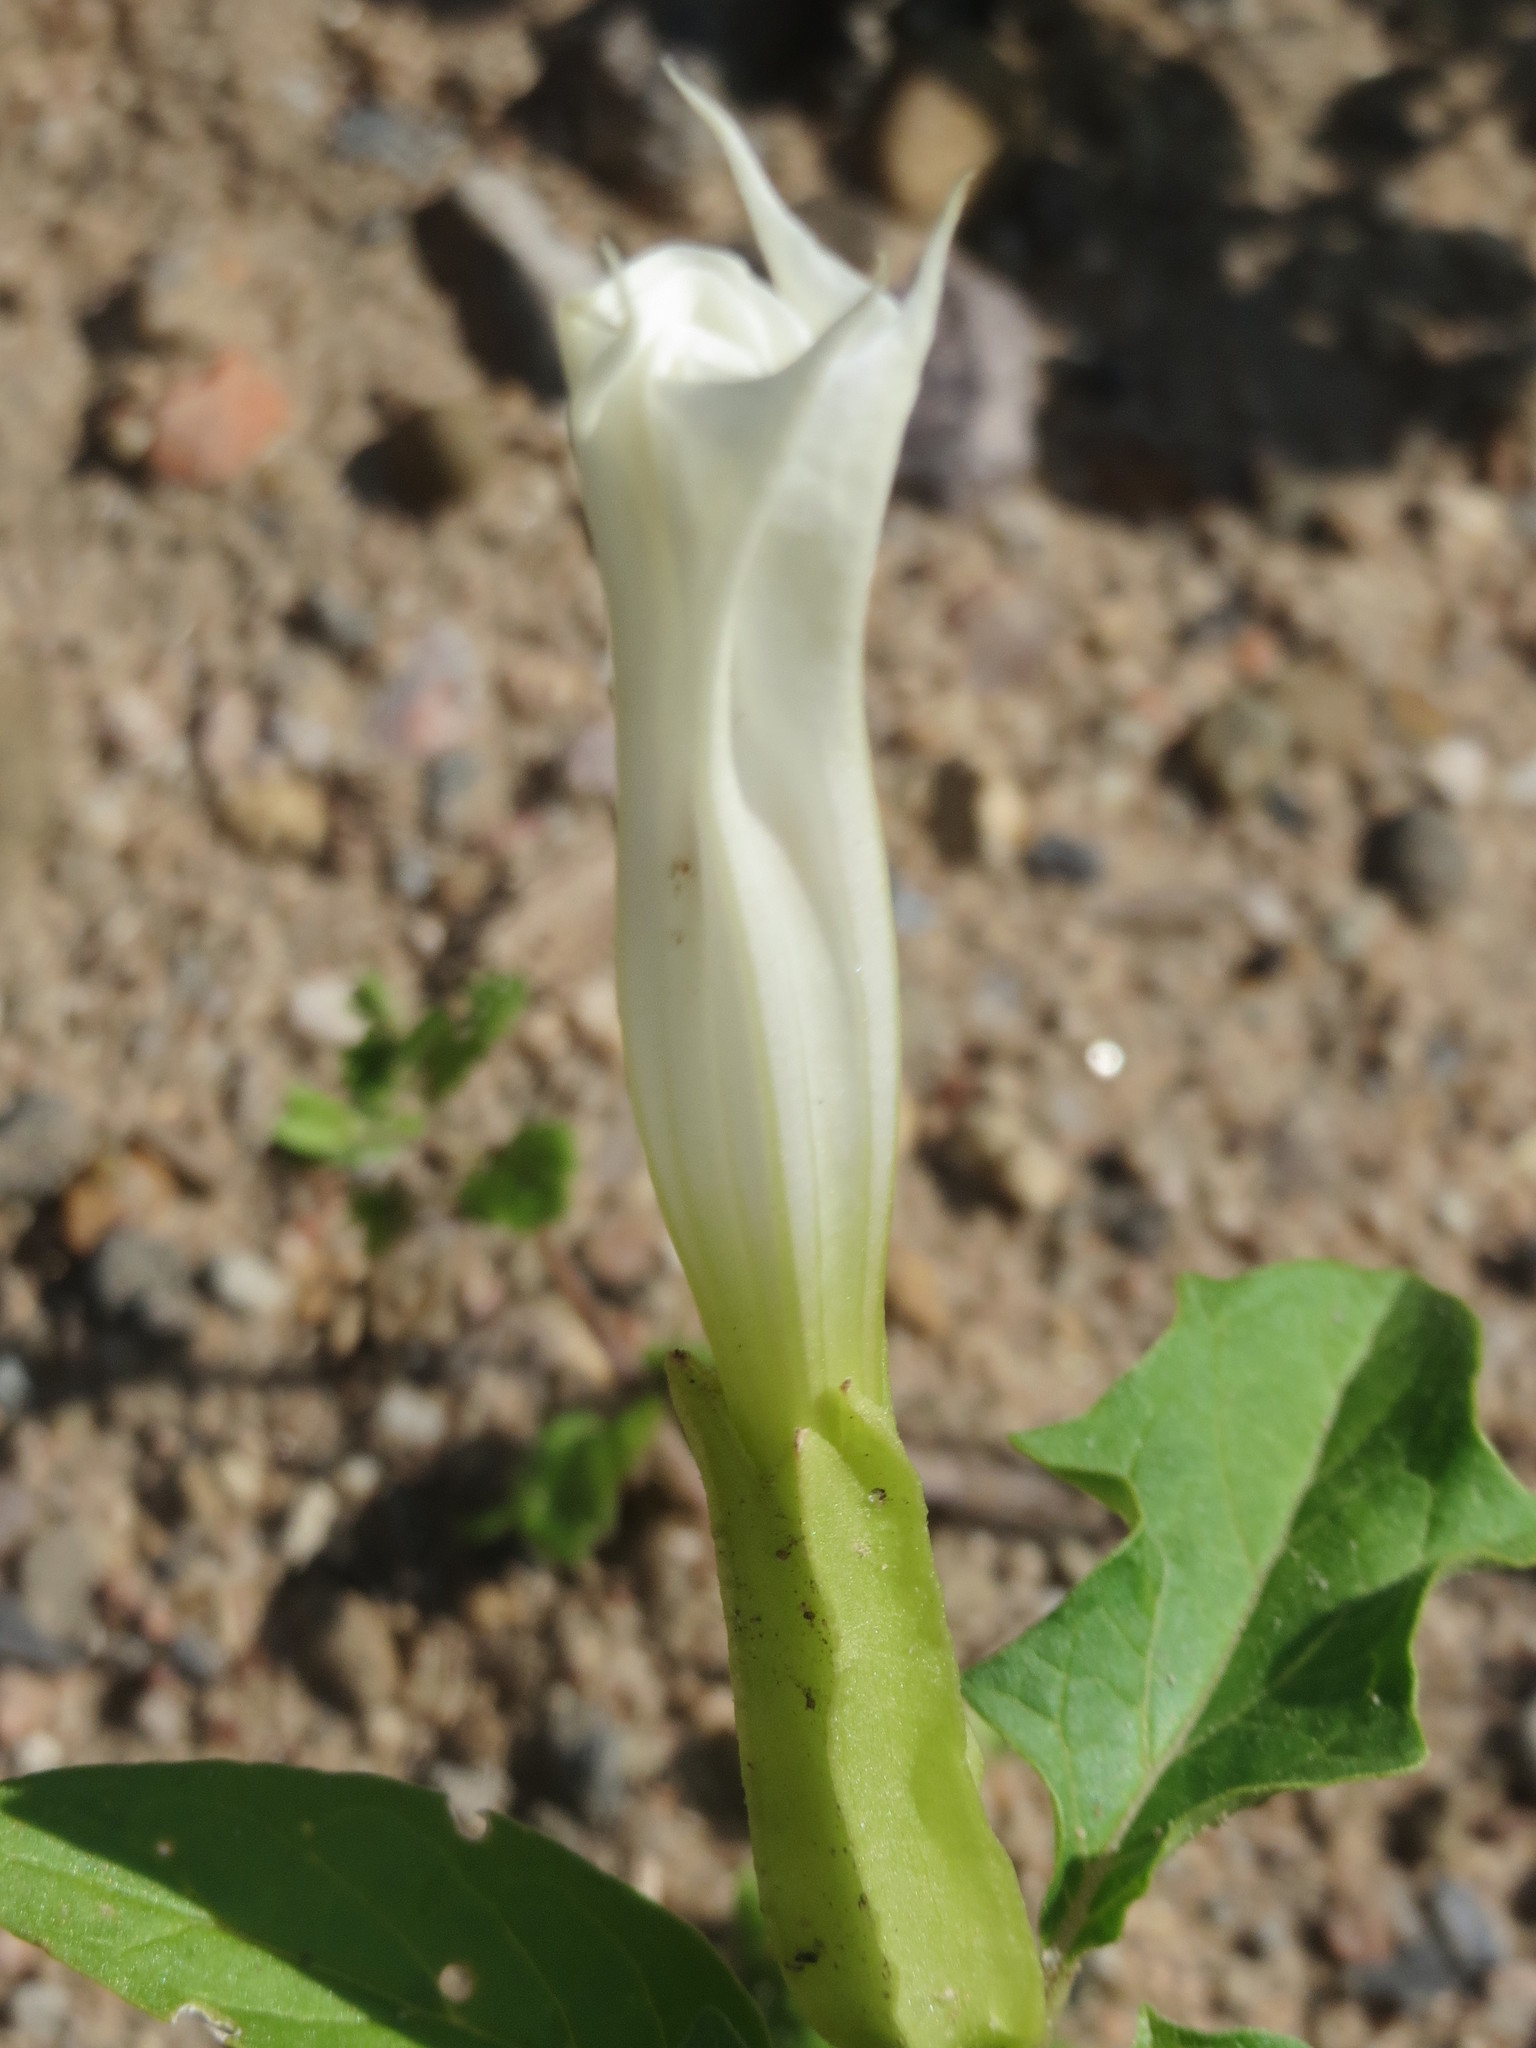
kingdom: Plantae
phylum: Tracheophyta
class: Magnoliopsida
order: Solanales
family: Solanaceae
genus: Datura
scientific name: Datura stramonium
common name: Thorn-apple
